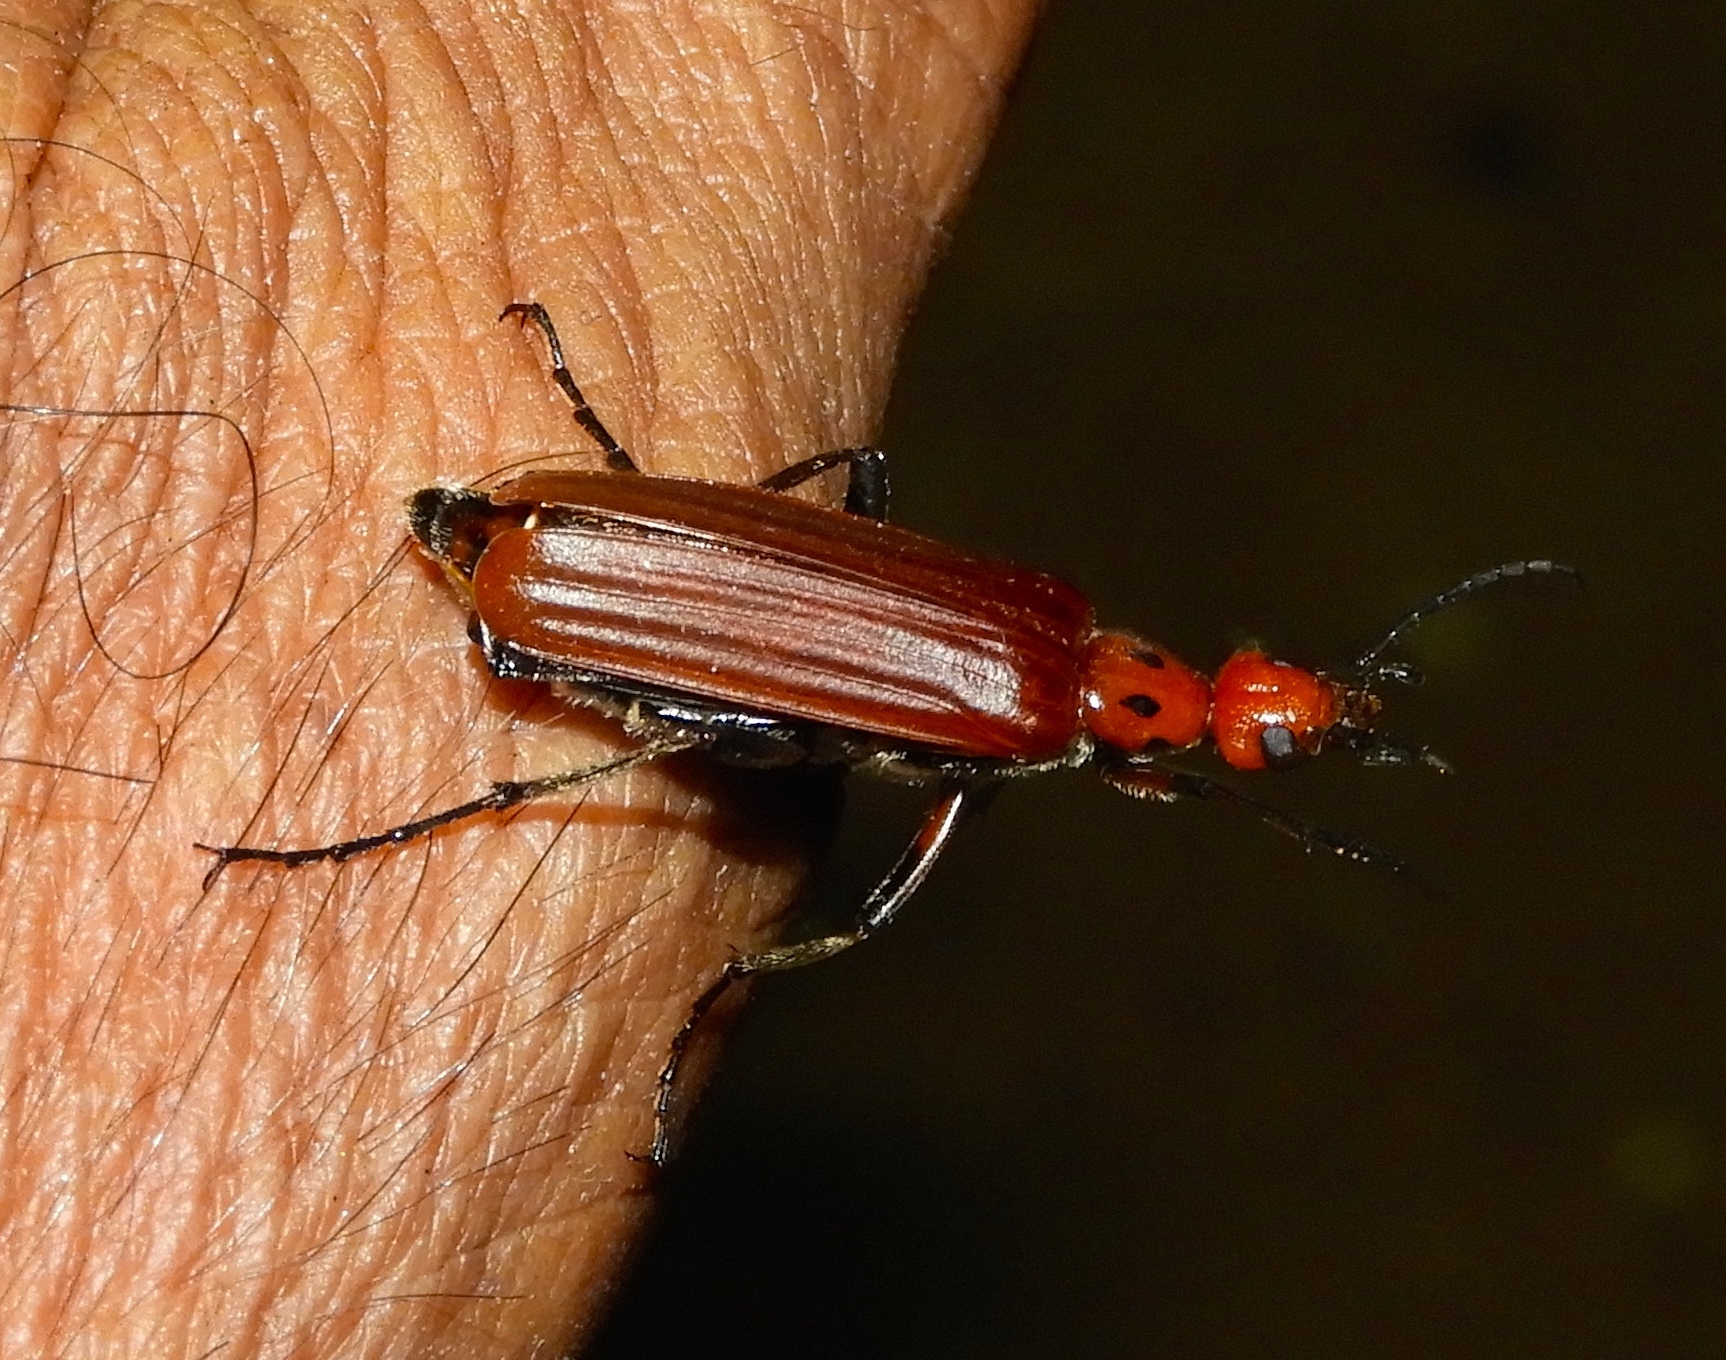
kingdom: Animalia
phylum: Arthropoda
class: Insecta
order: Coleoptera
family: Meloidae
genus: Pyrota
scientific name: Pyrota
